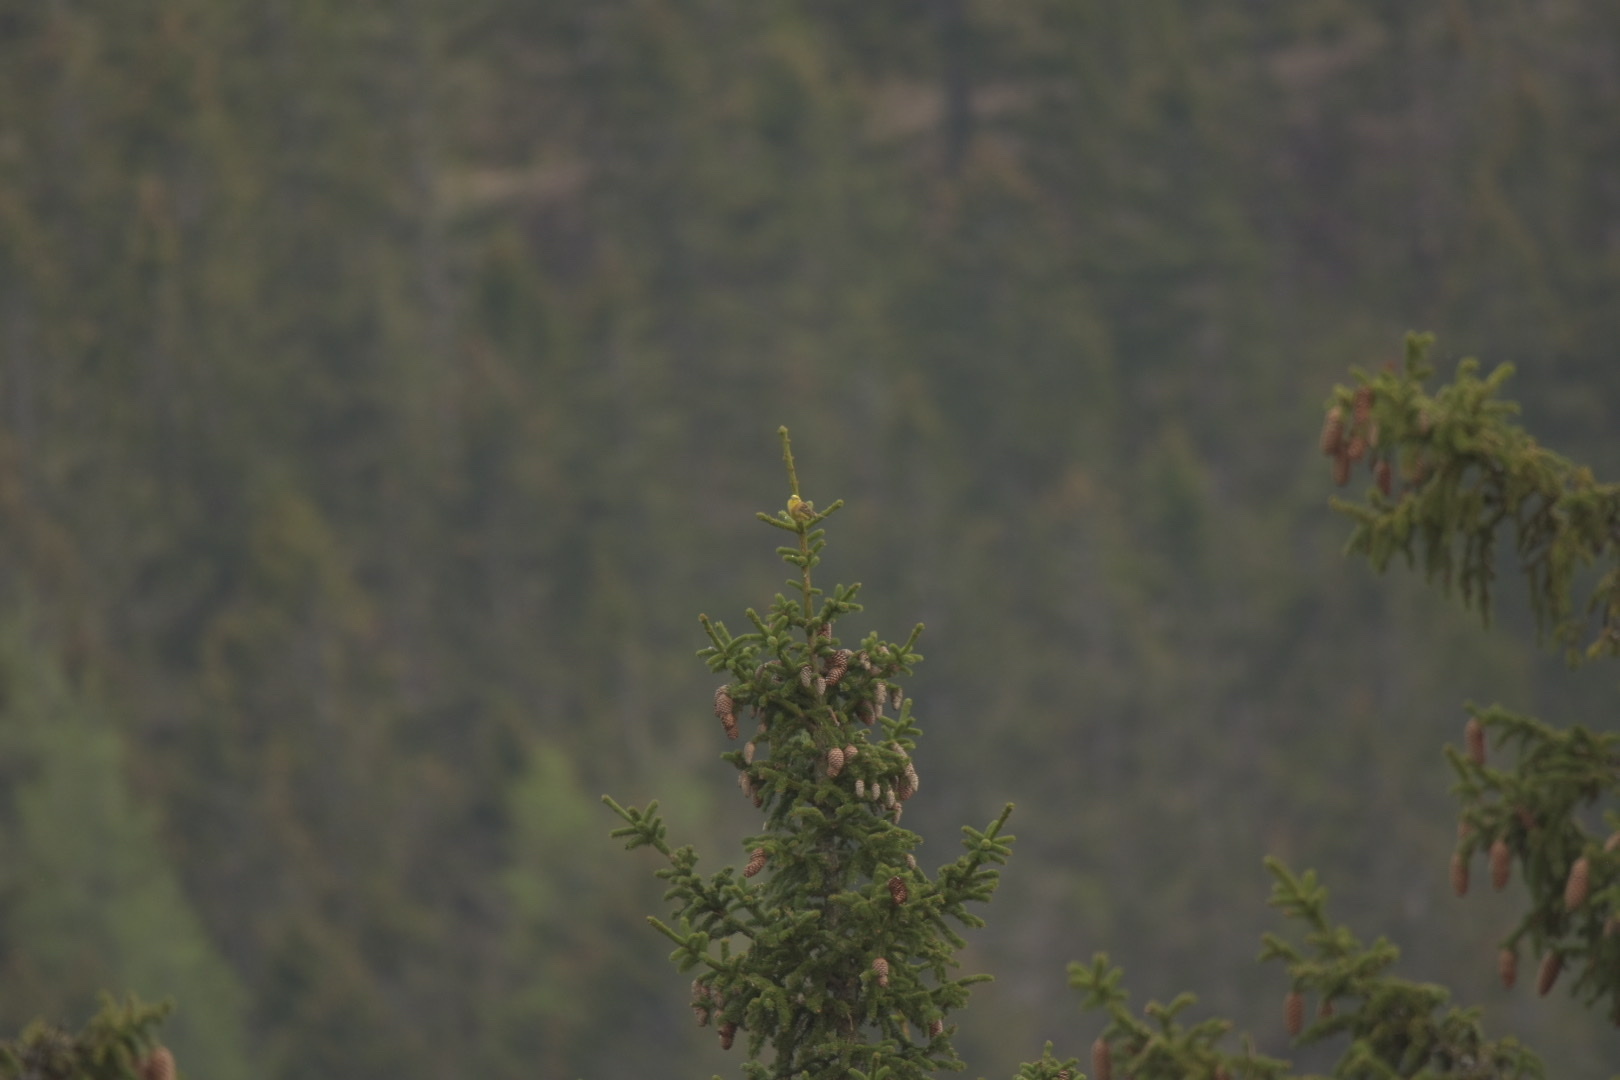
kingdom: Animalia
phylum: Chordata
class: Aves
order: Passeriformes
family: Emberizidae
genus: Emberiza
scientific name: Emberiza citrinella
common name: Yellowhammer
